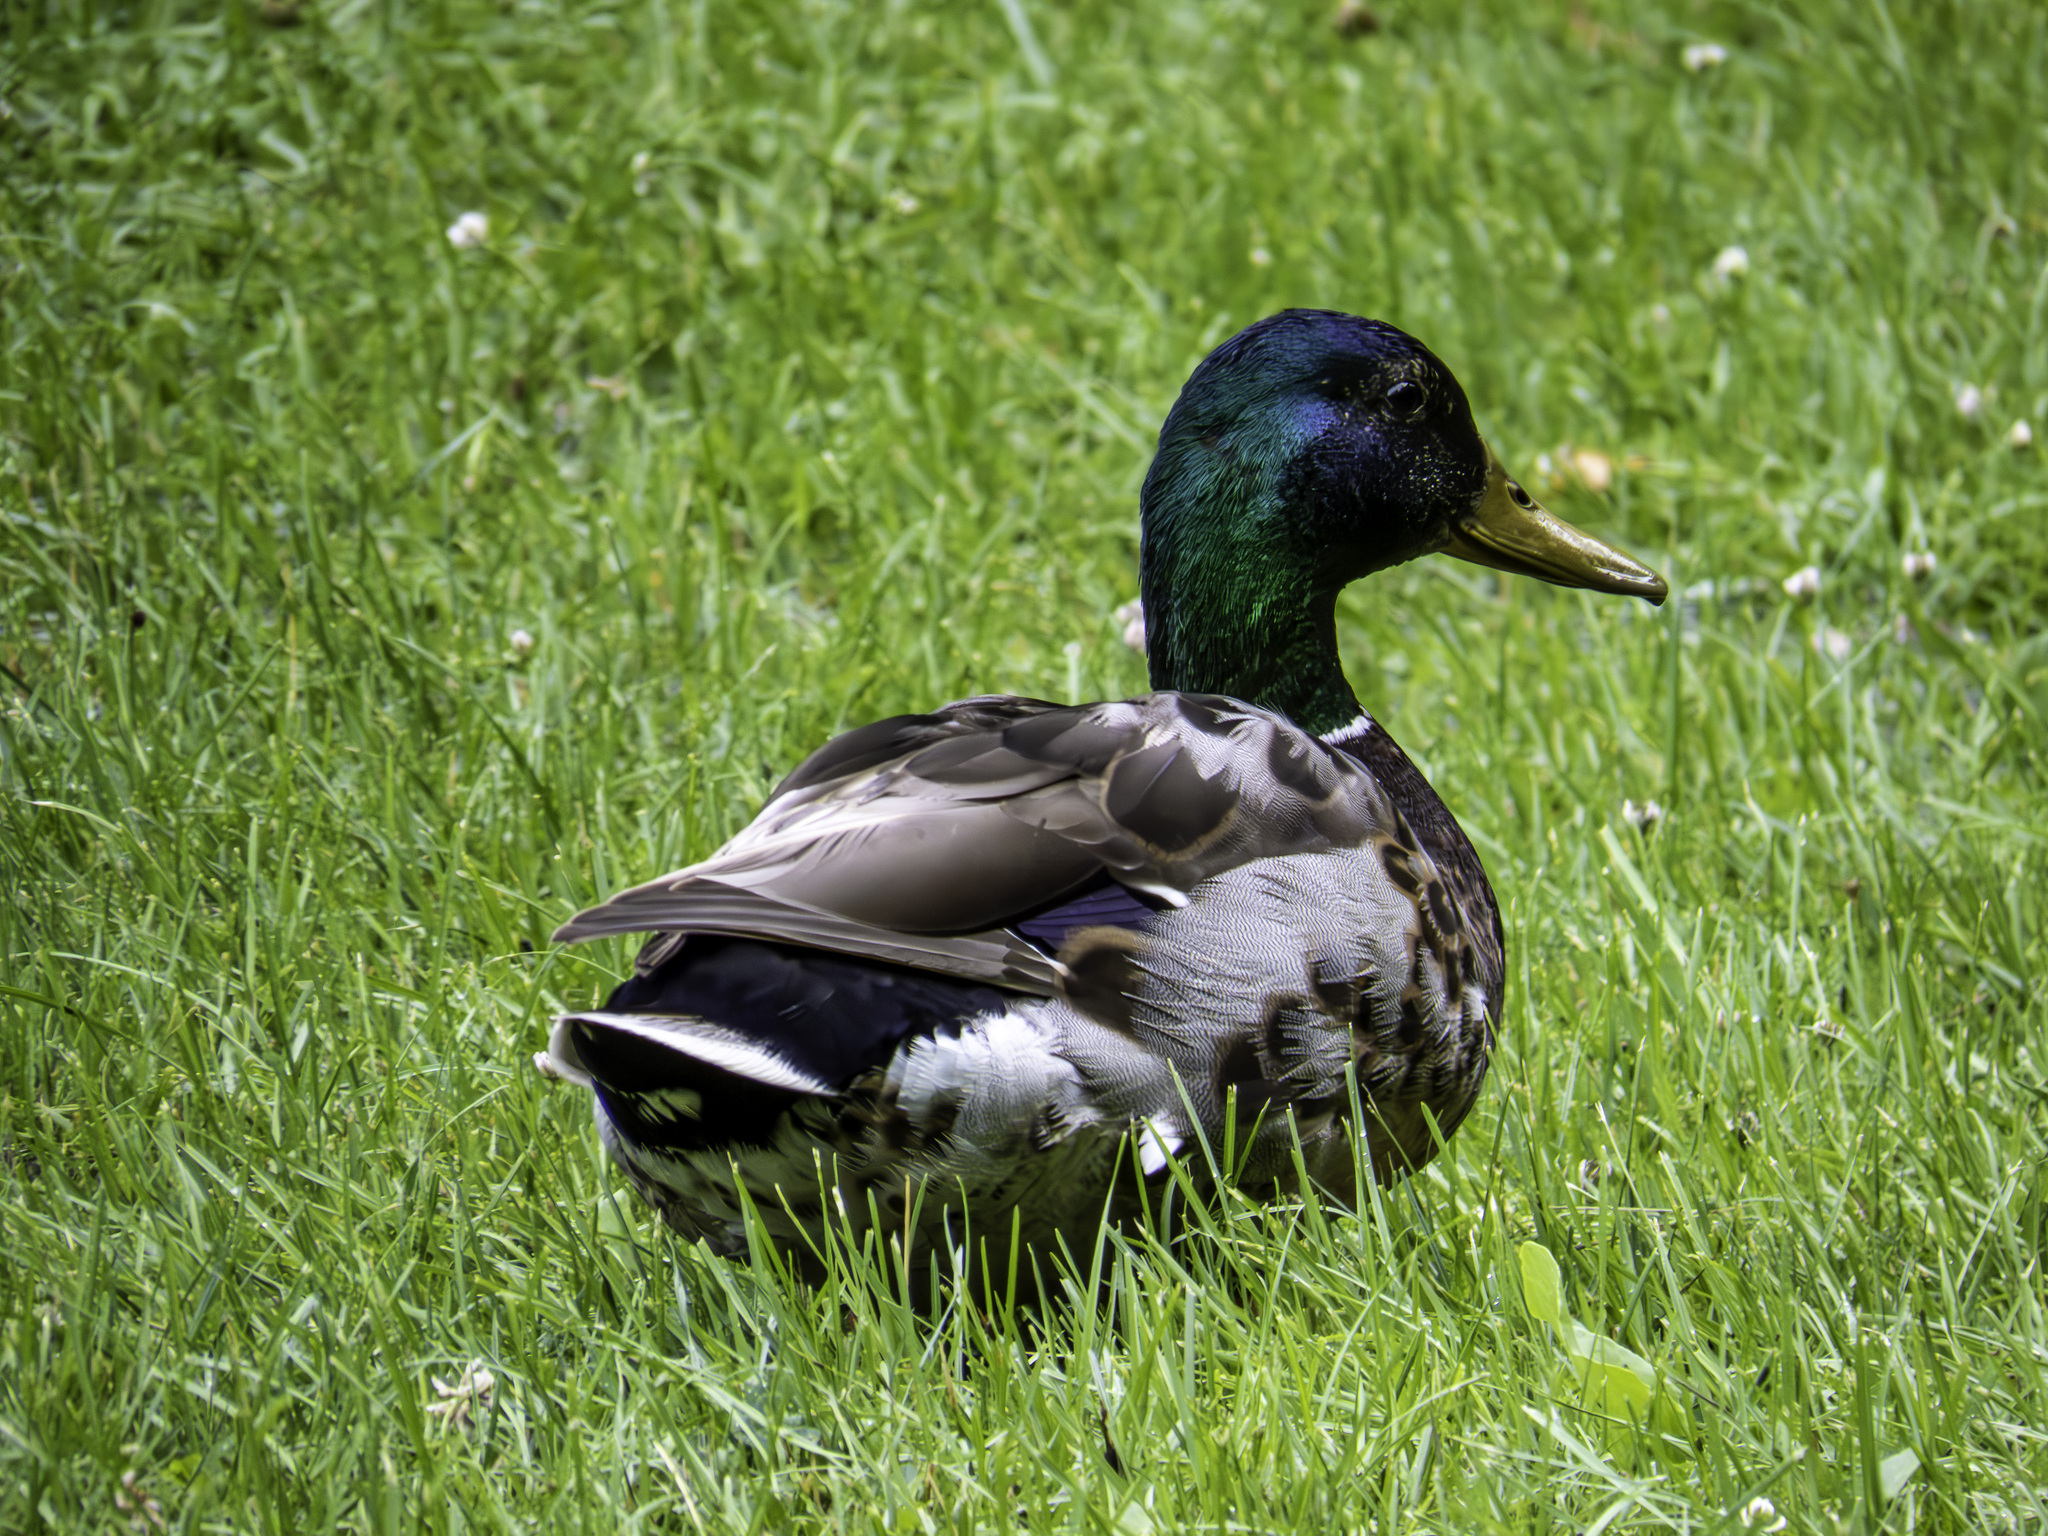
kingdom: Animalia
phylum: Chordata
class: Aves
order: Anseriformes
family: Anatidae
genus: Anas
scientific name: Anas platyrhynchos
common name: Mallard
